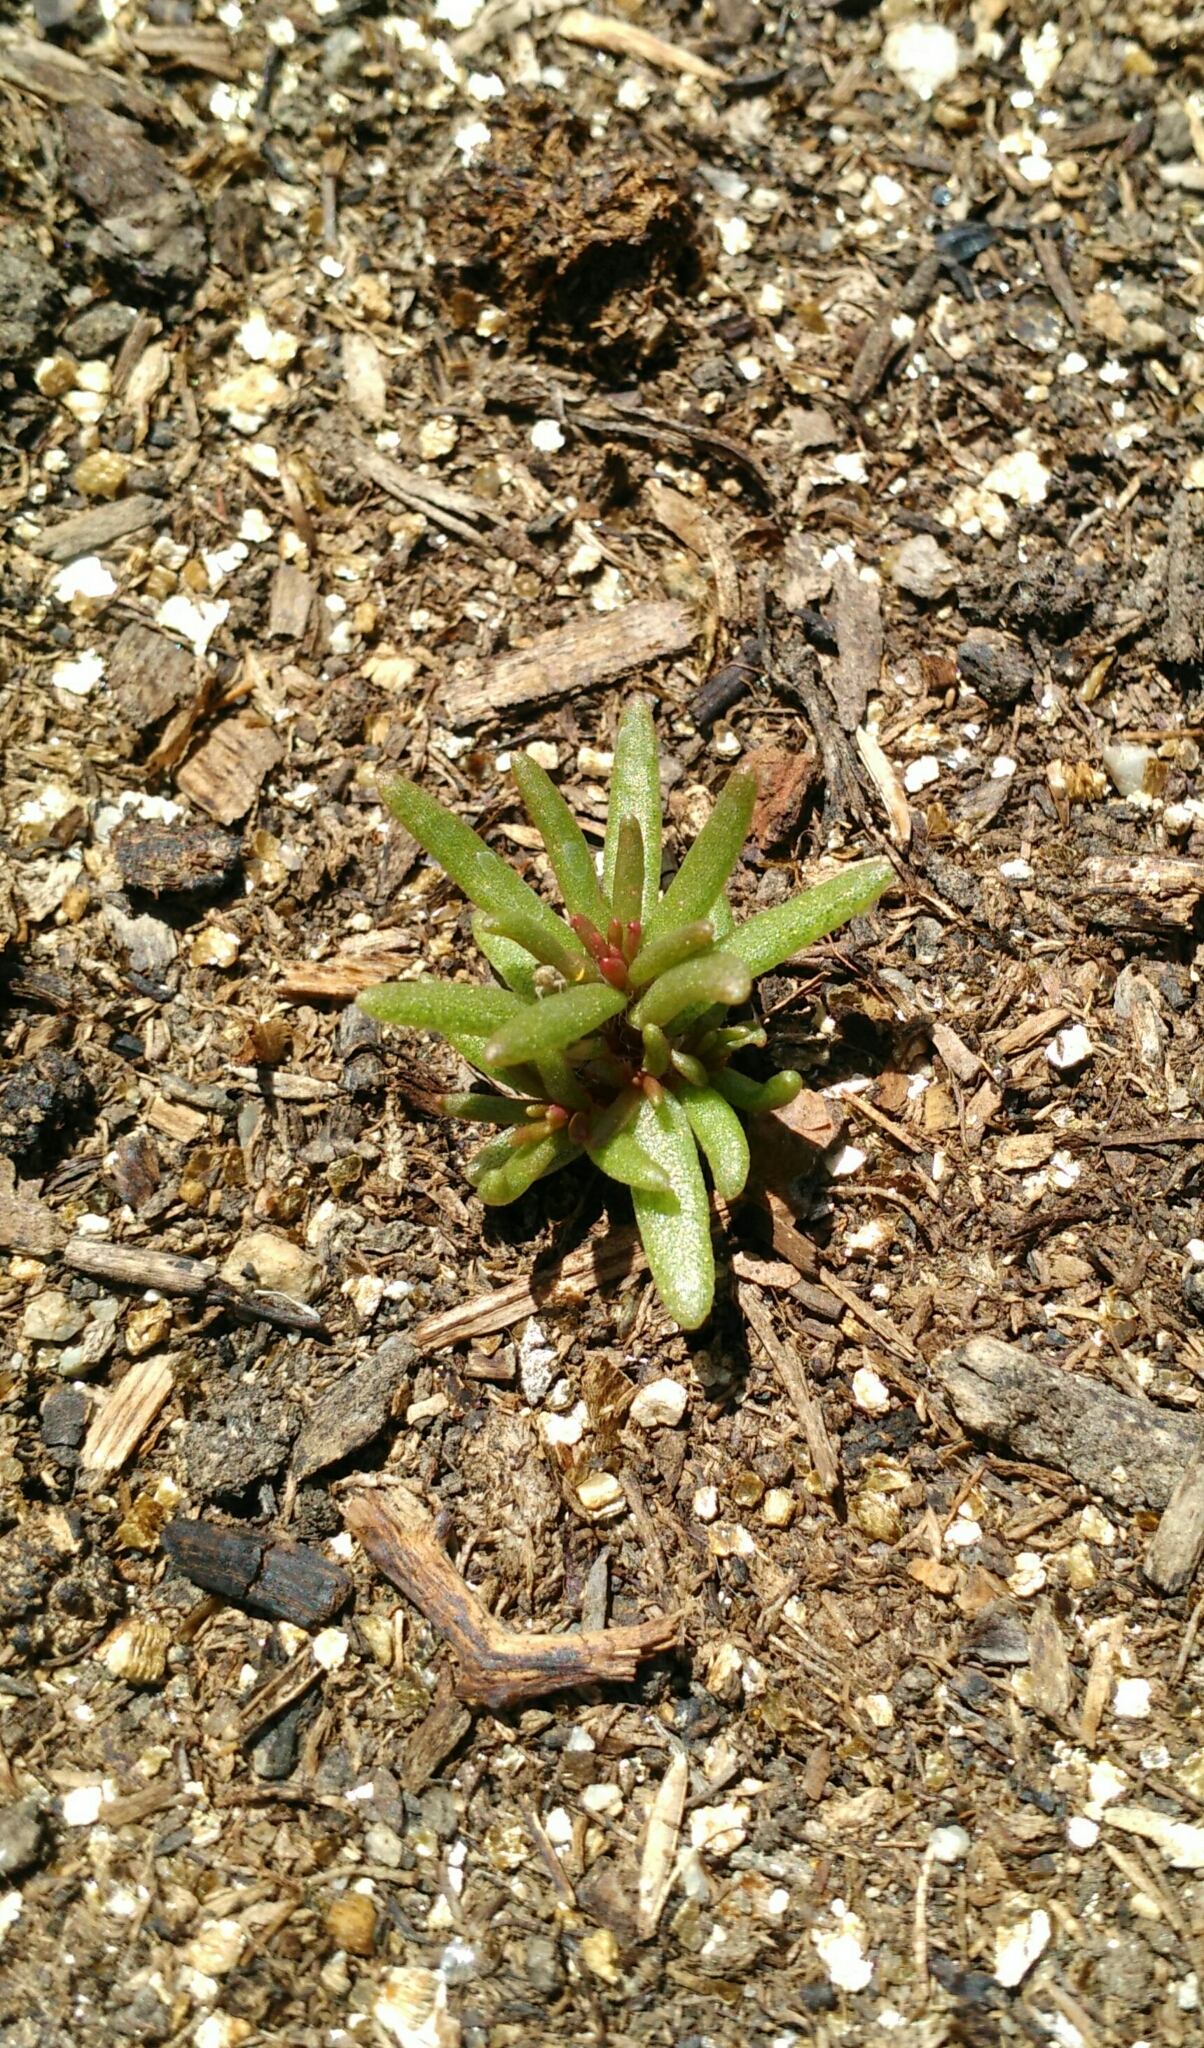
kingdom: Plantae
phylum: Tracheophyta
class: Magnoliopsida
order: Caryophyllales
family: Portulacaceae
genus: Portulaca
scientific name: Portulaca grandiflora
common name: Moss-rose
